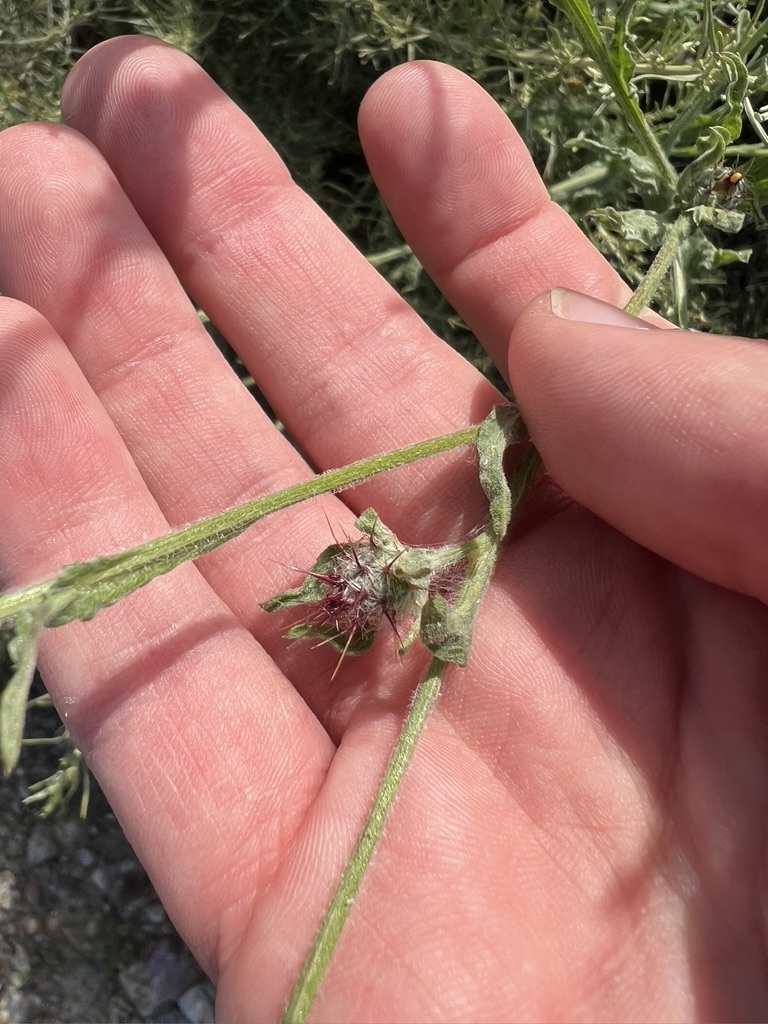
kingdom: Plantae
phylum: Tracheophyta
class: Magnoliopsida
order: Asterales
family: Asteraceae
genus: Centaurea
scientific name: Centaurea melitensis
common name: Maltese star-thistle
